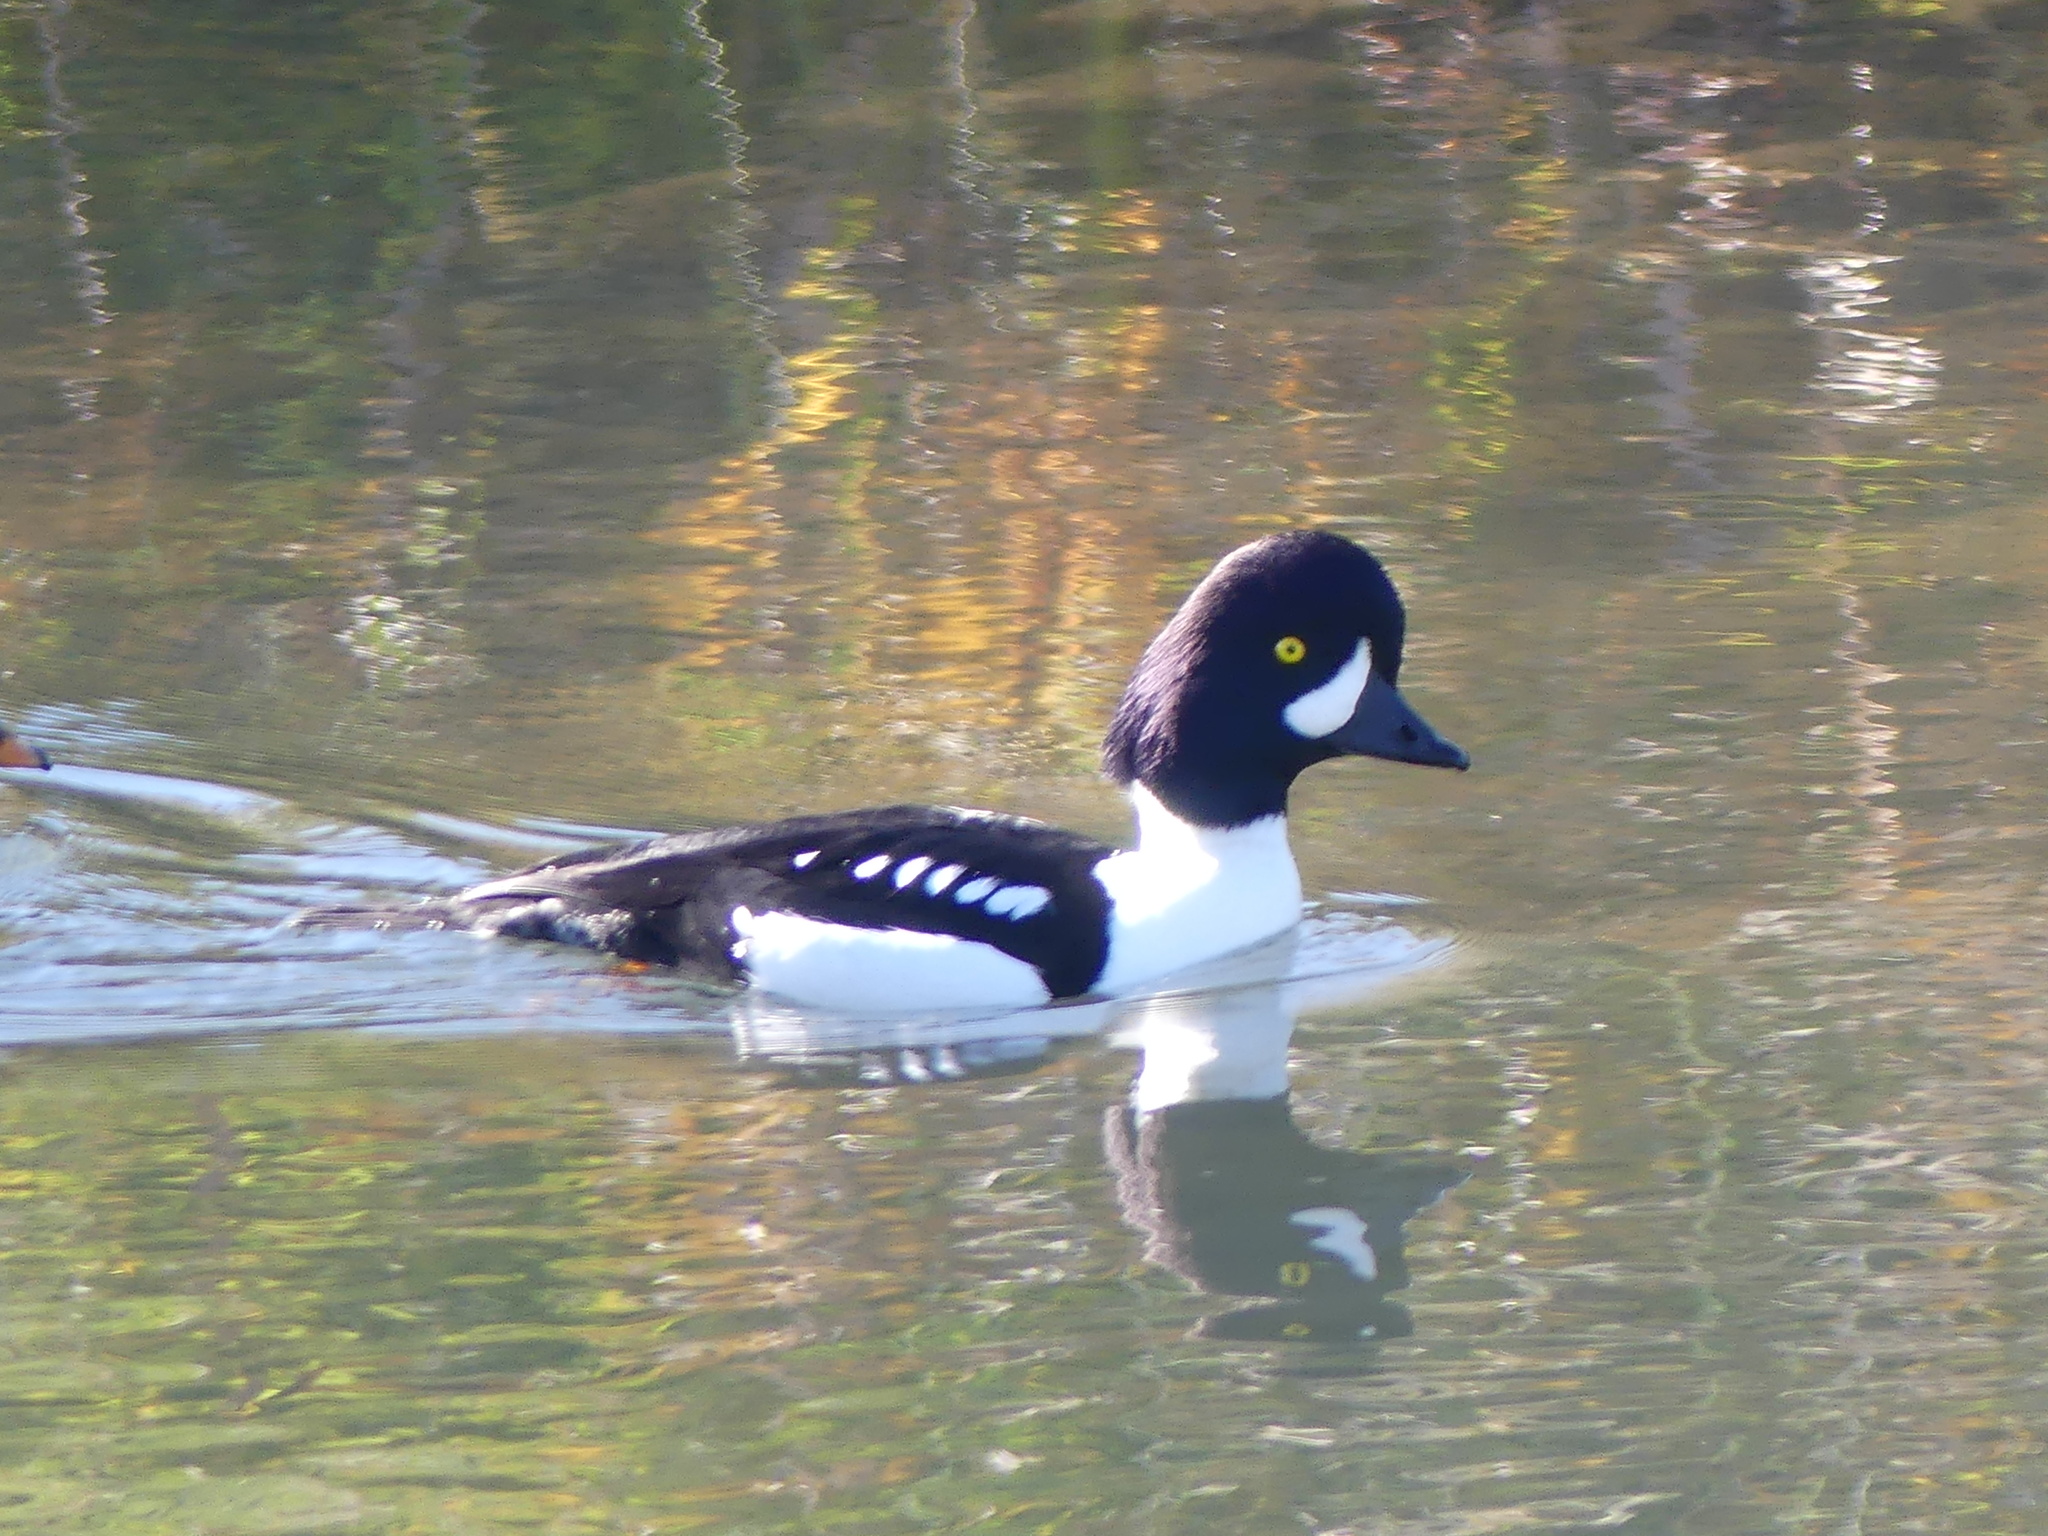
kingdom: Animalia
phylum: Chordata
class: Aves
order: Anseriformes
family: Anatidae
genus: Bucephala
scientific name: Bucephala islandica
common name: Barrow's goldeneye
